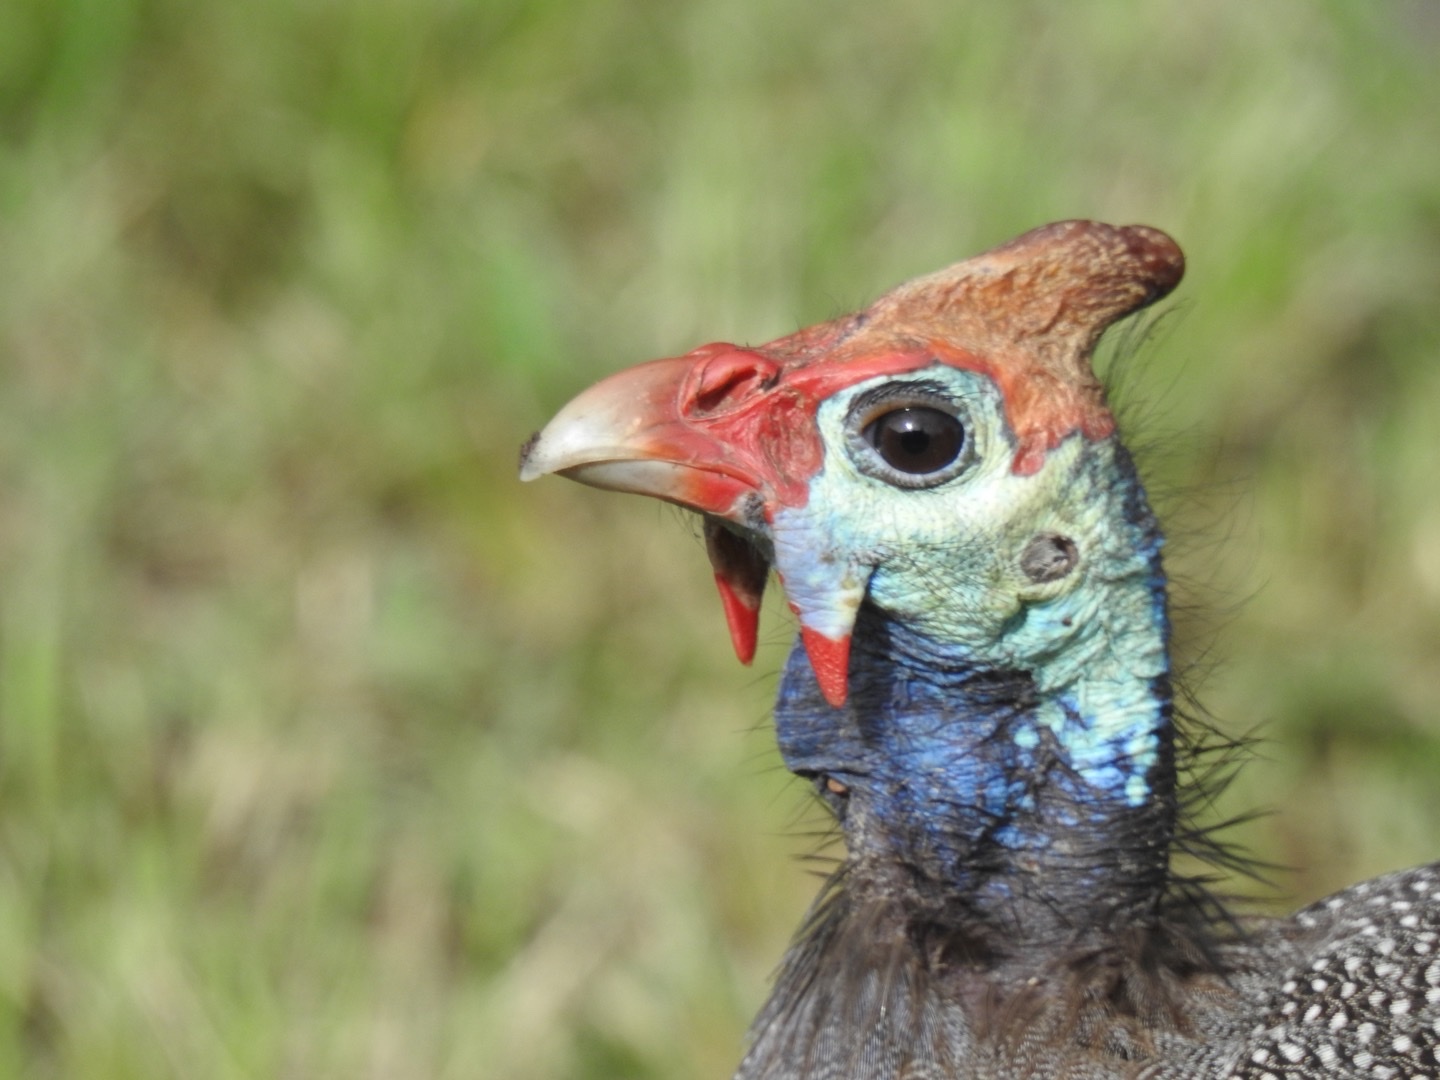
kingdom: Animalia
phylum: Chordata
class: Aves
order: Galliformes
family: Numididae
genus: Numida
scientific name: Numida meleagris
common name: Helmeted guineafowl
